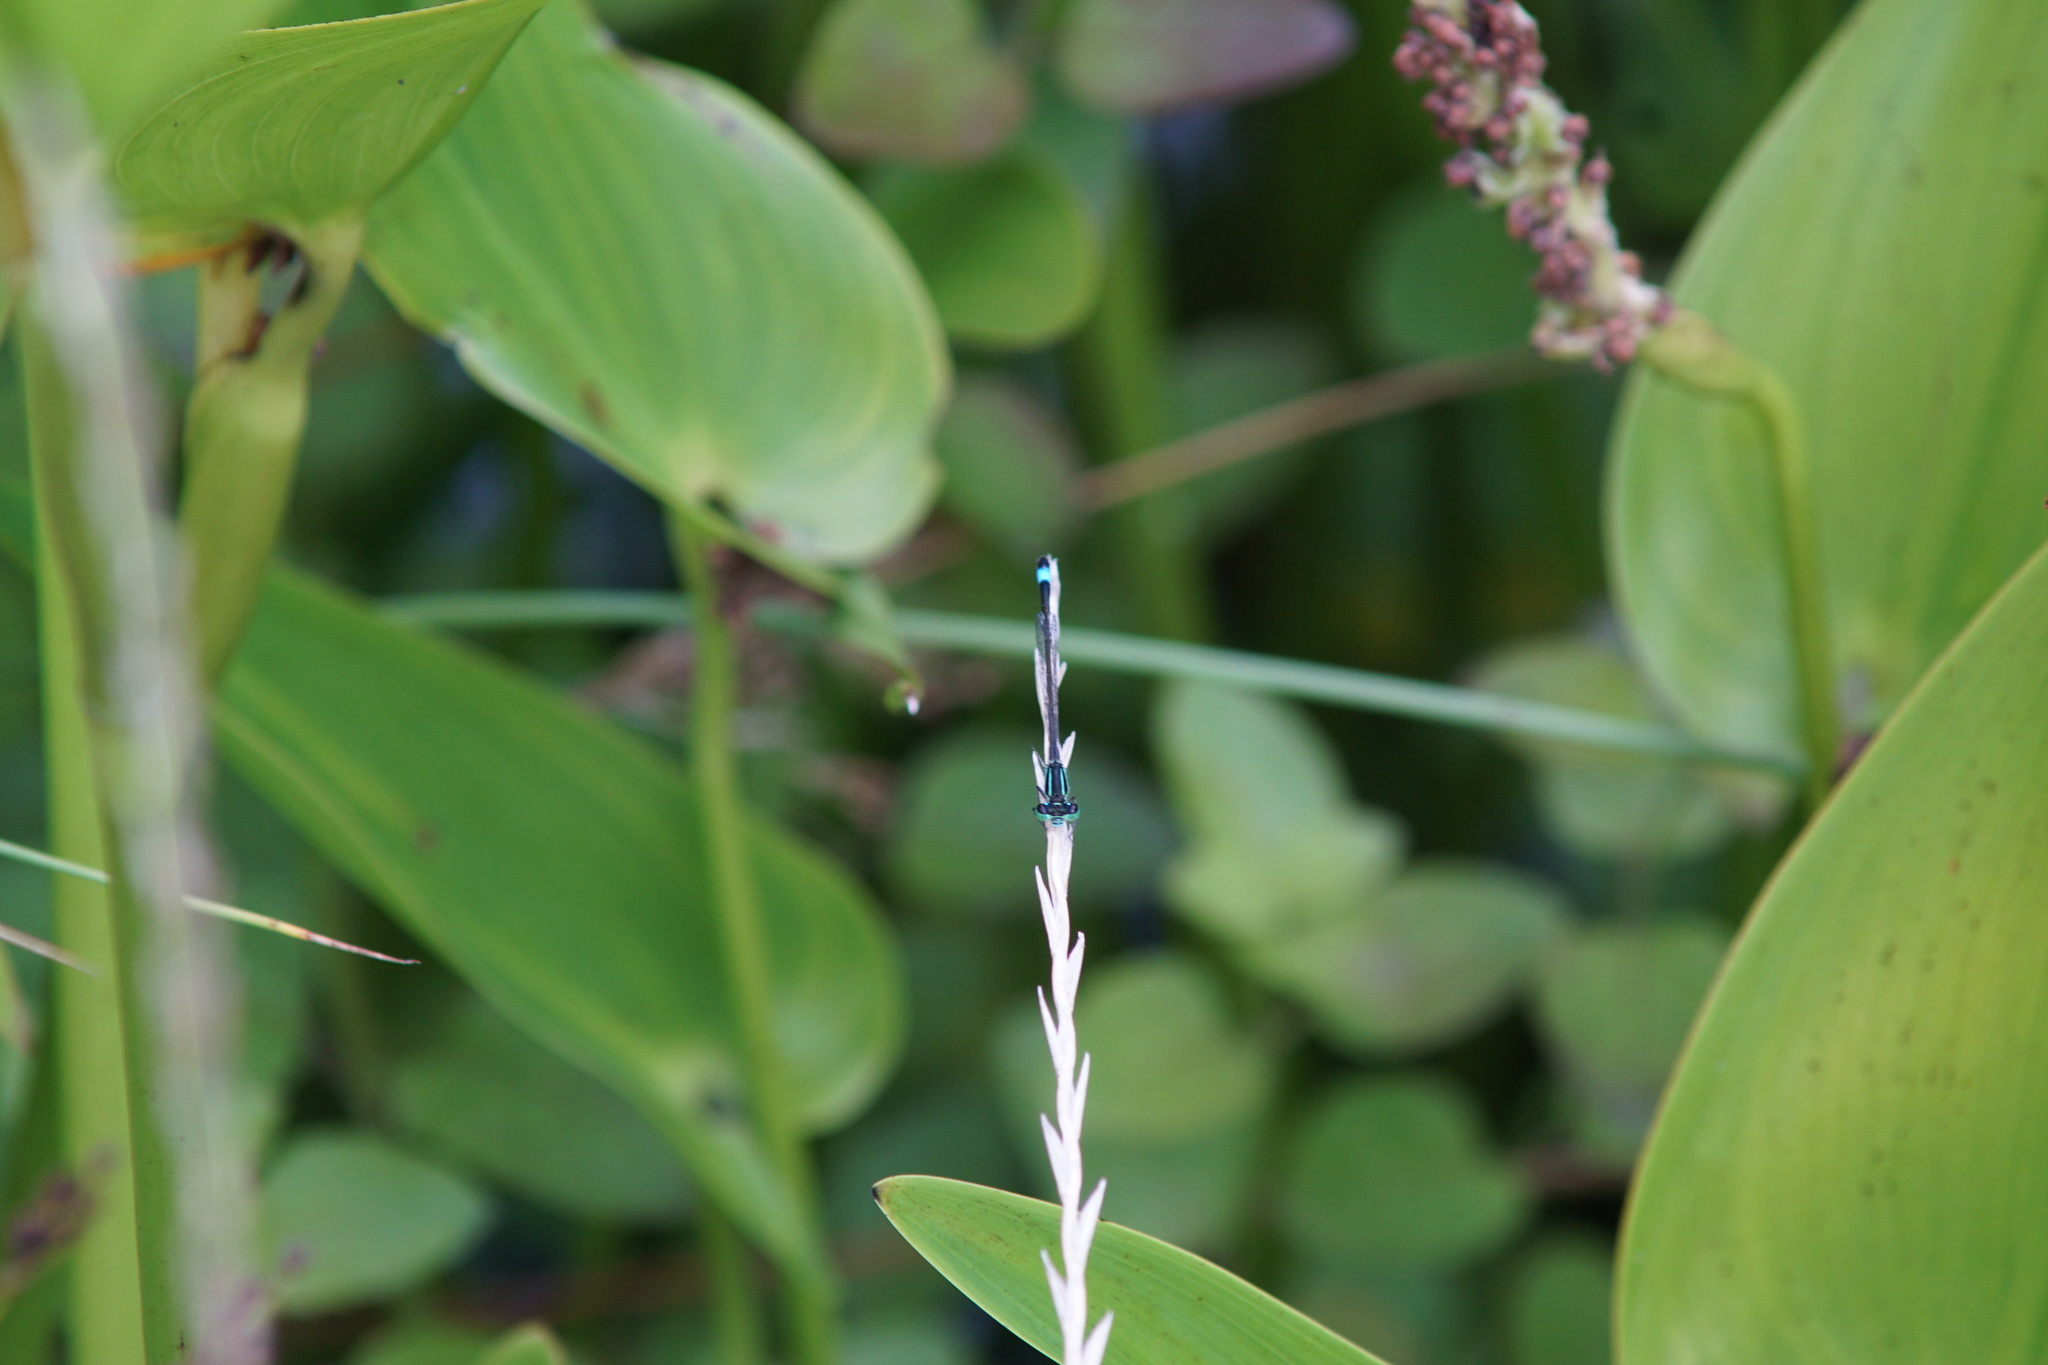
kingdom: Animalia
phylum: Arthropoda
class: Insecta
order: Odonata
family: Coenagrionidae
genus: Ischnura
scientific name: Ischnura elegans
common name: Blue-tailed damselfly
